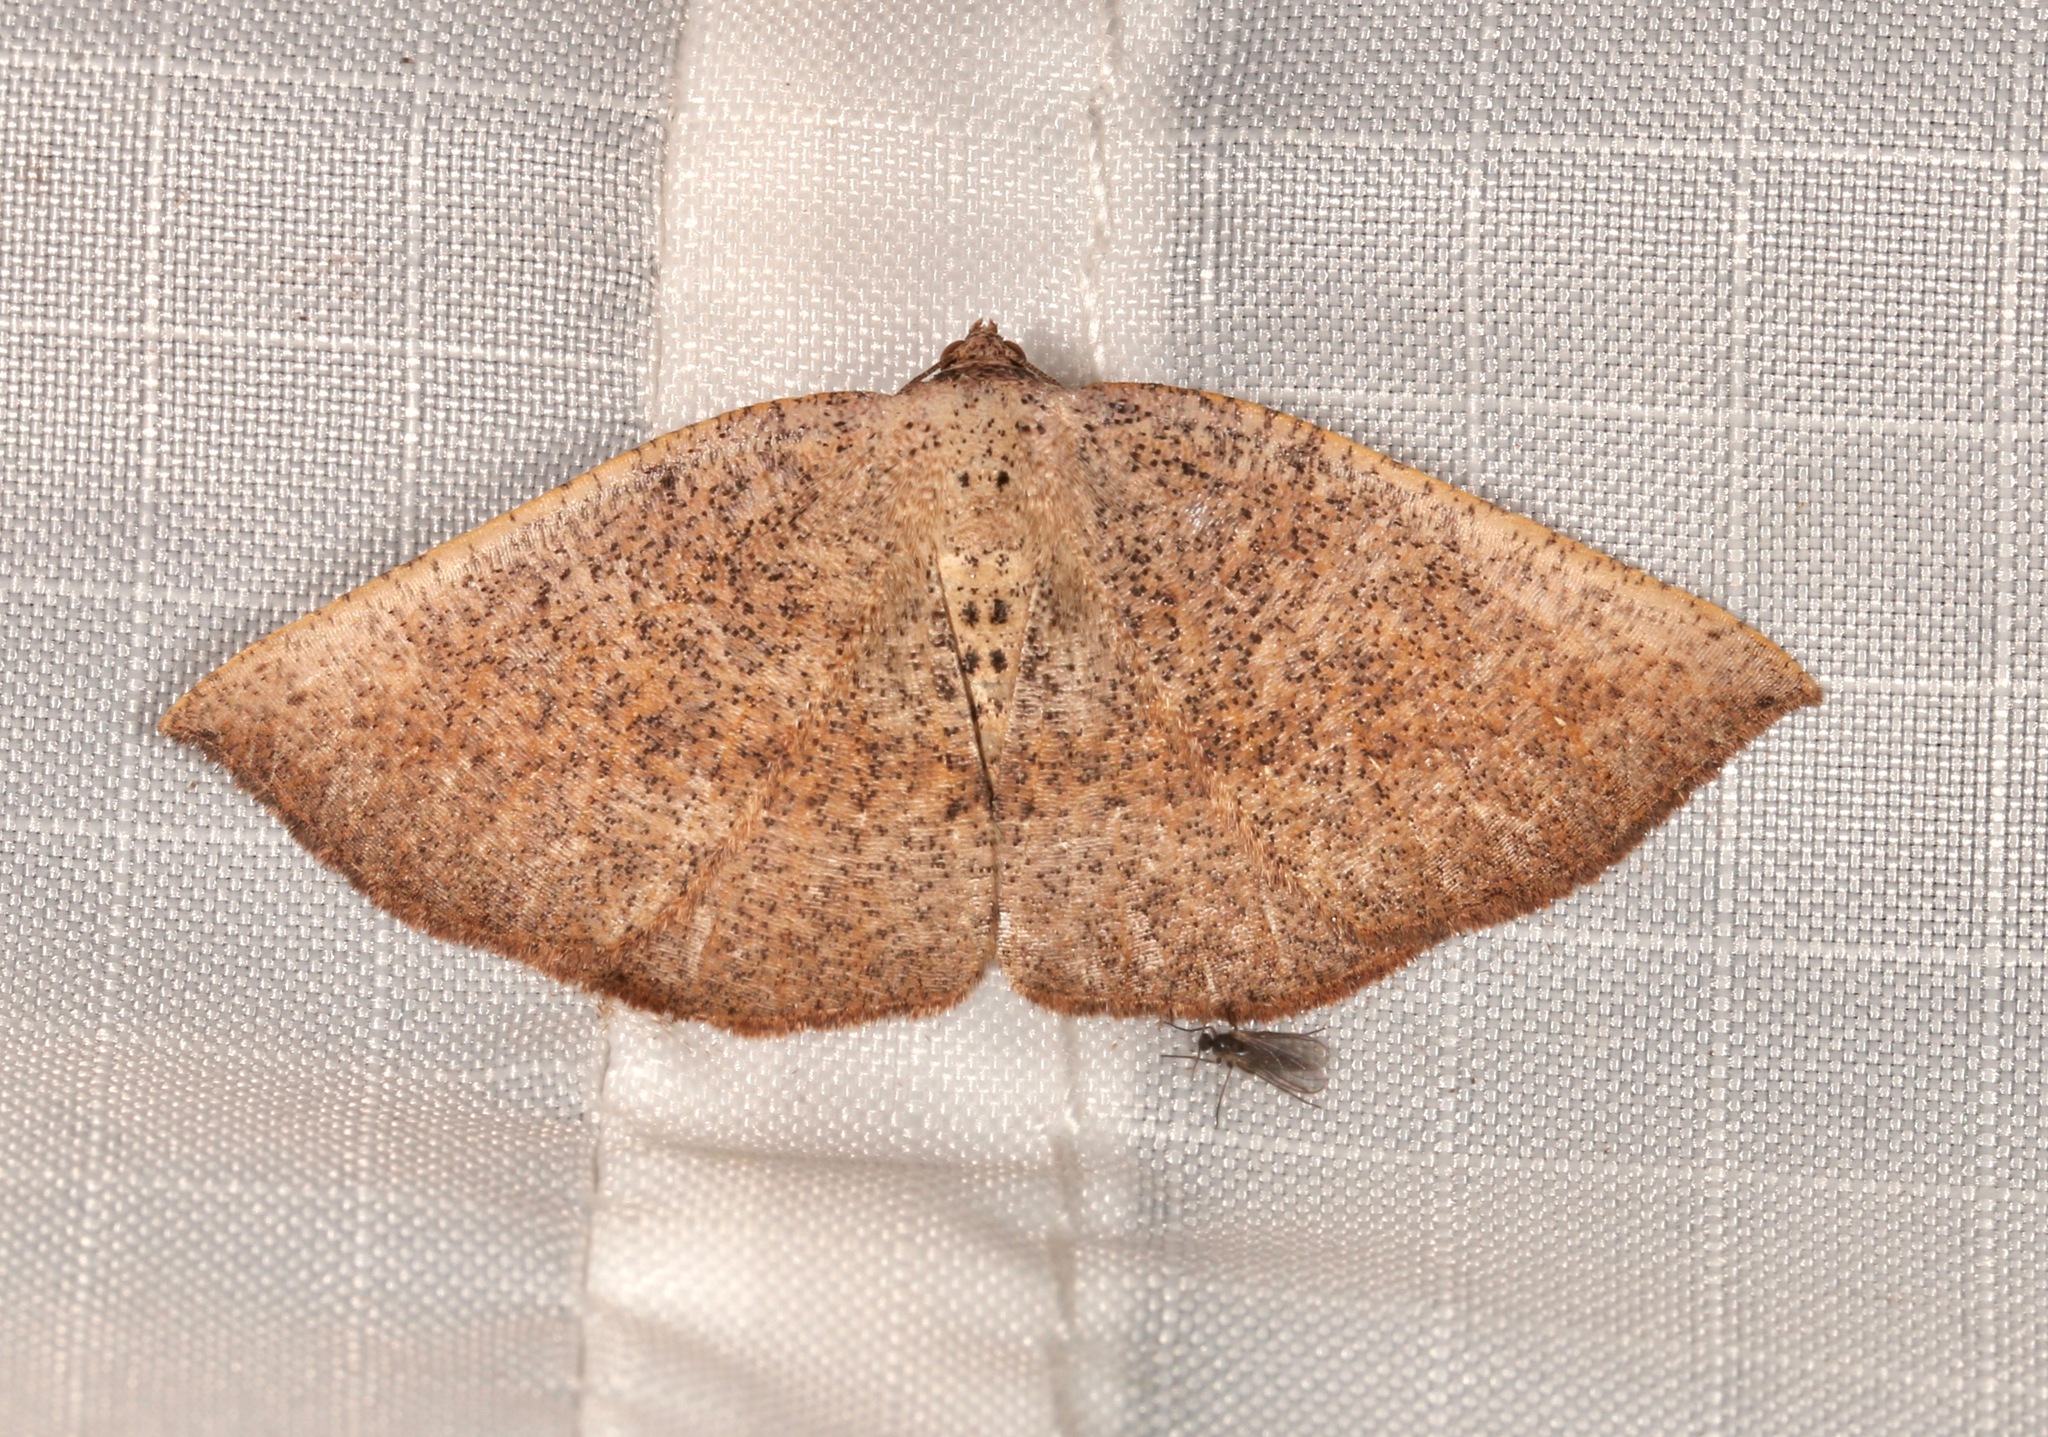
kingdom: Animalia
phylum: Arthropoda
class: Insecta
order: Lepidoptera
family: Geometridae
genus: Tacparia
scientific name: Tacparia zalissaria
